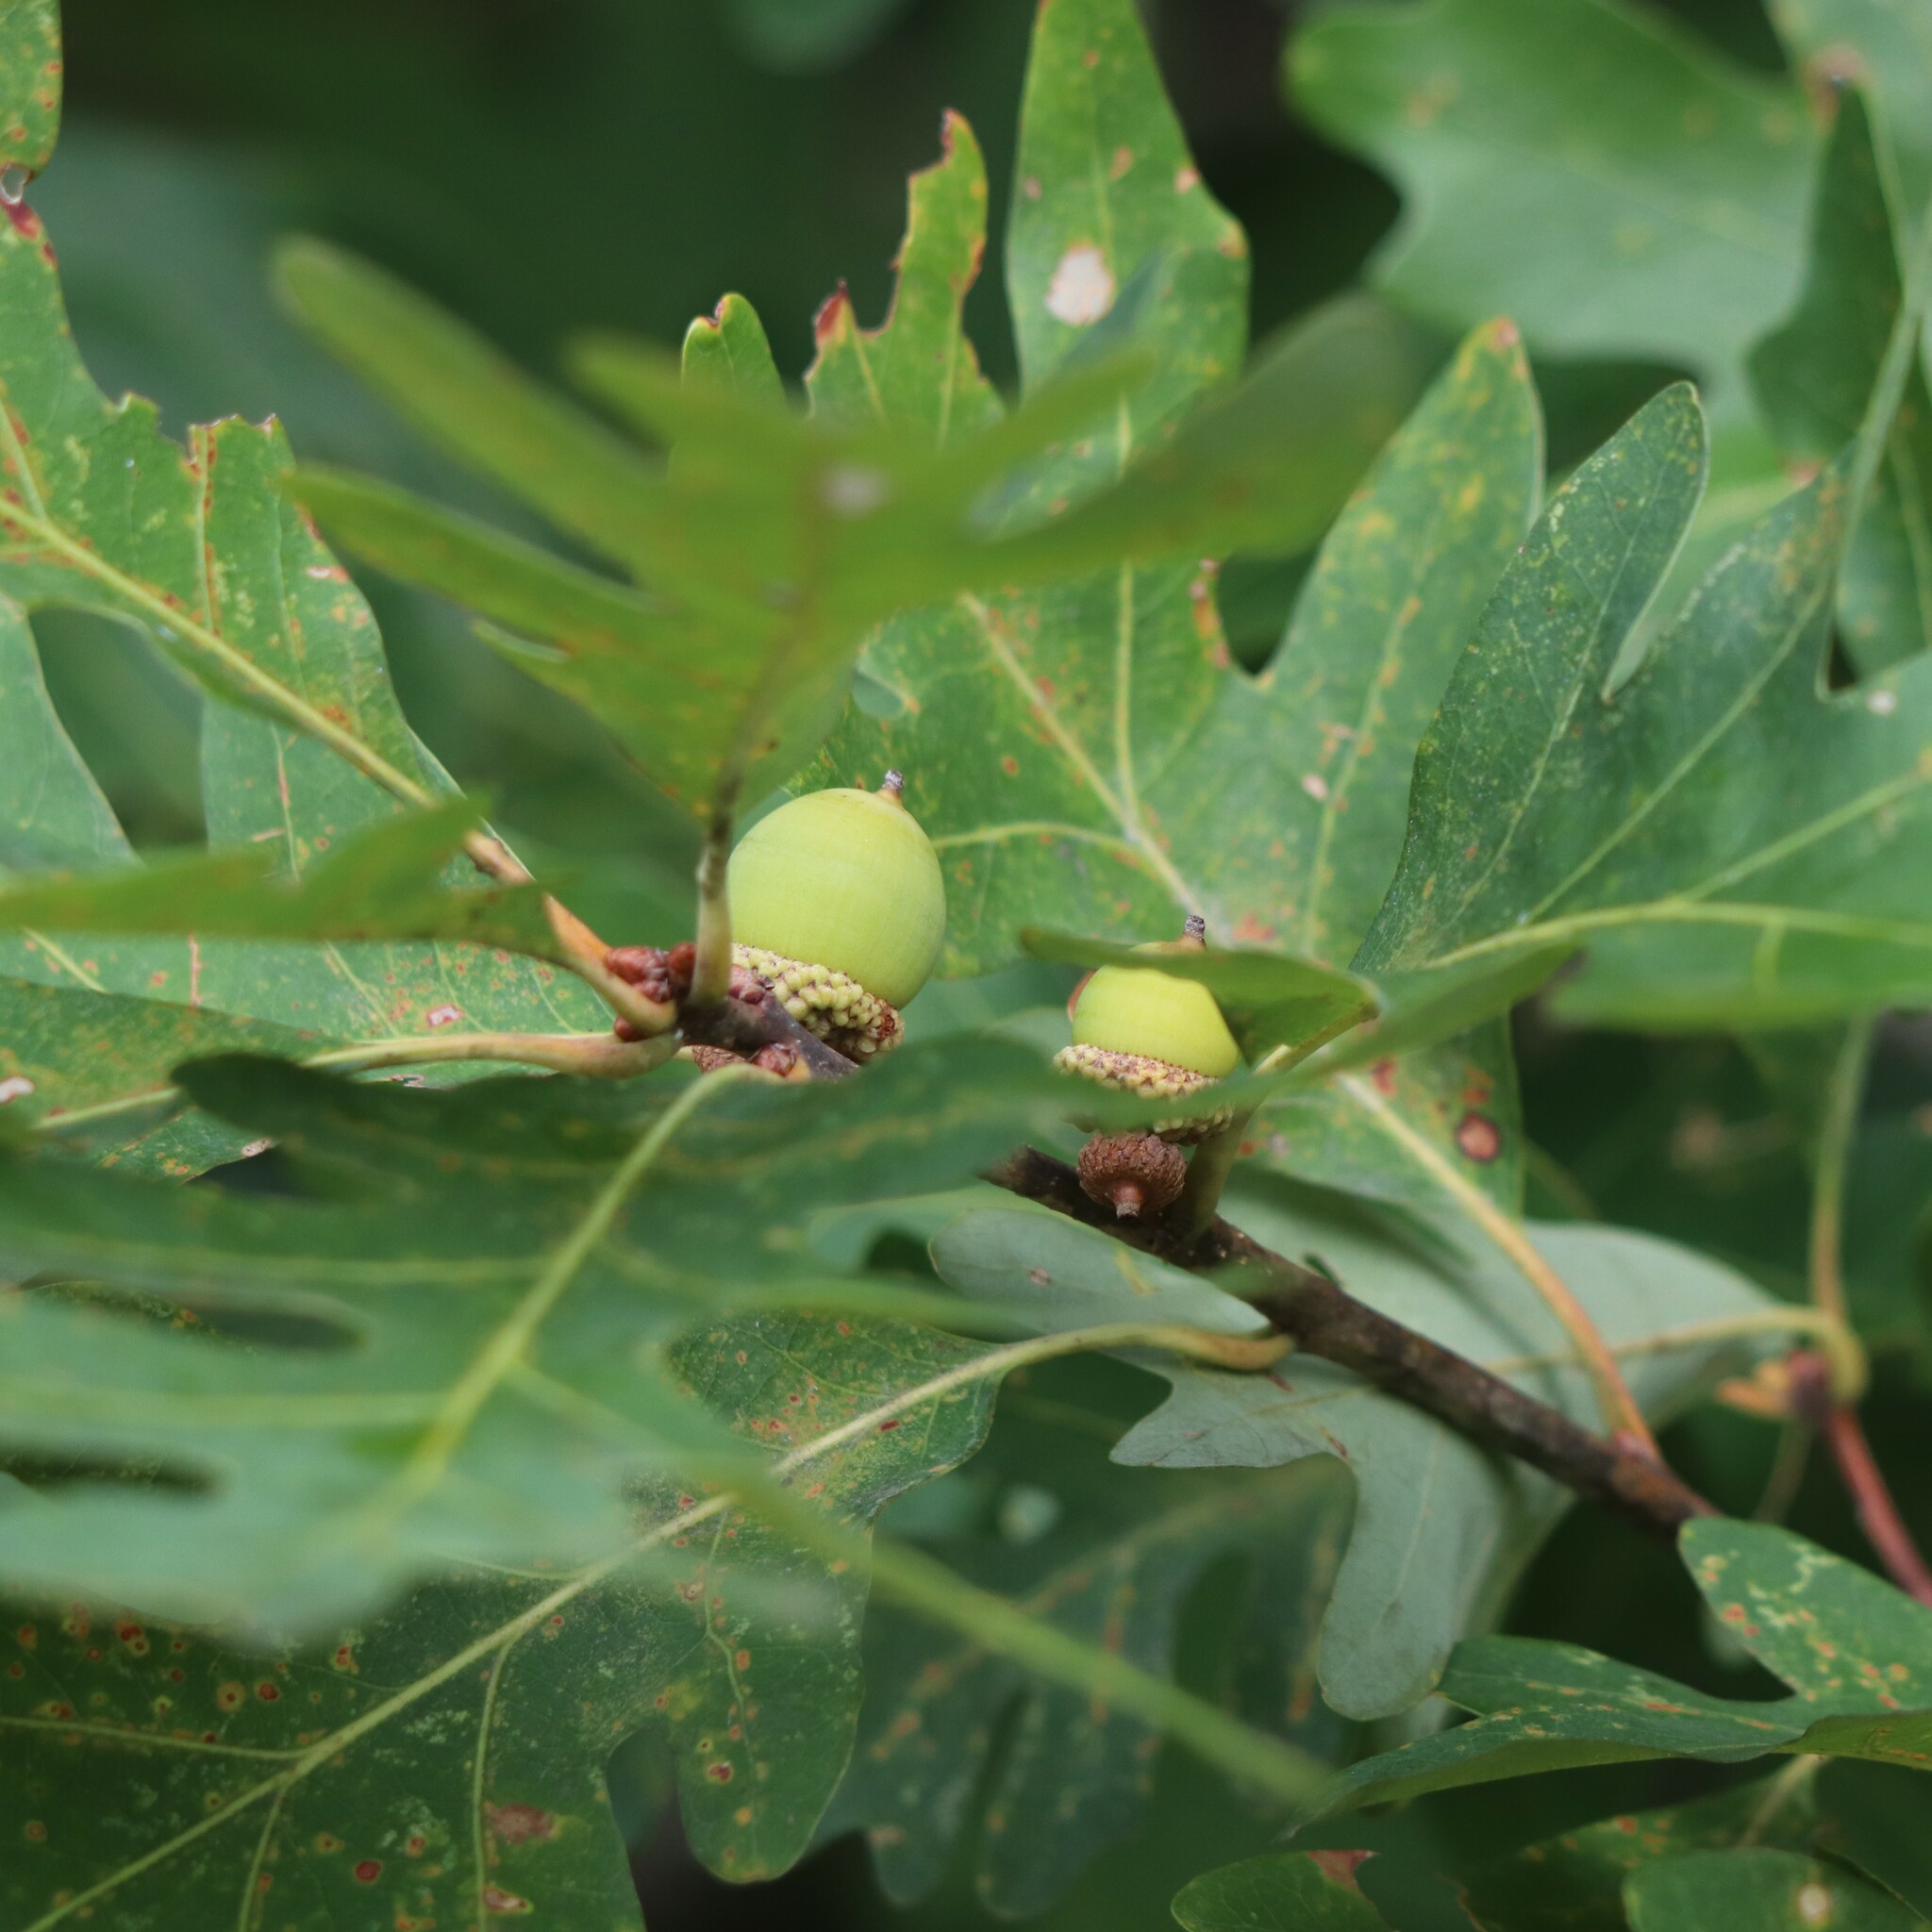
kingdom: Plantae
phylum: Tracheophyta
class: Magnoliopsida
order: Fagales
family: Fagaceae
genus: Quercus
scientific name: Quercus alba
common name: White oak
